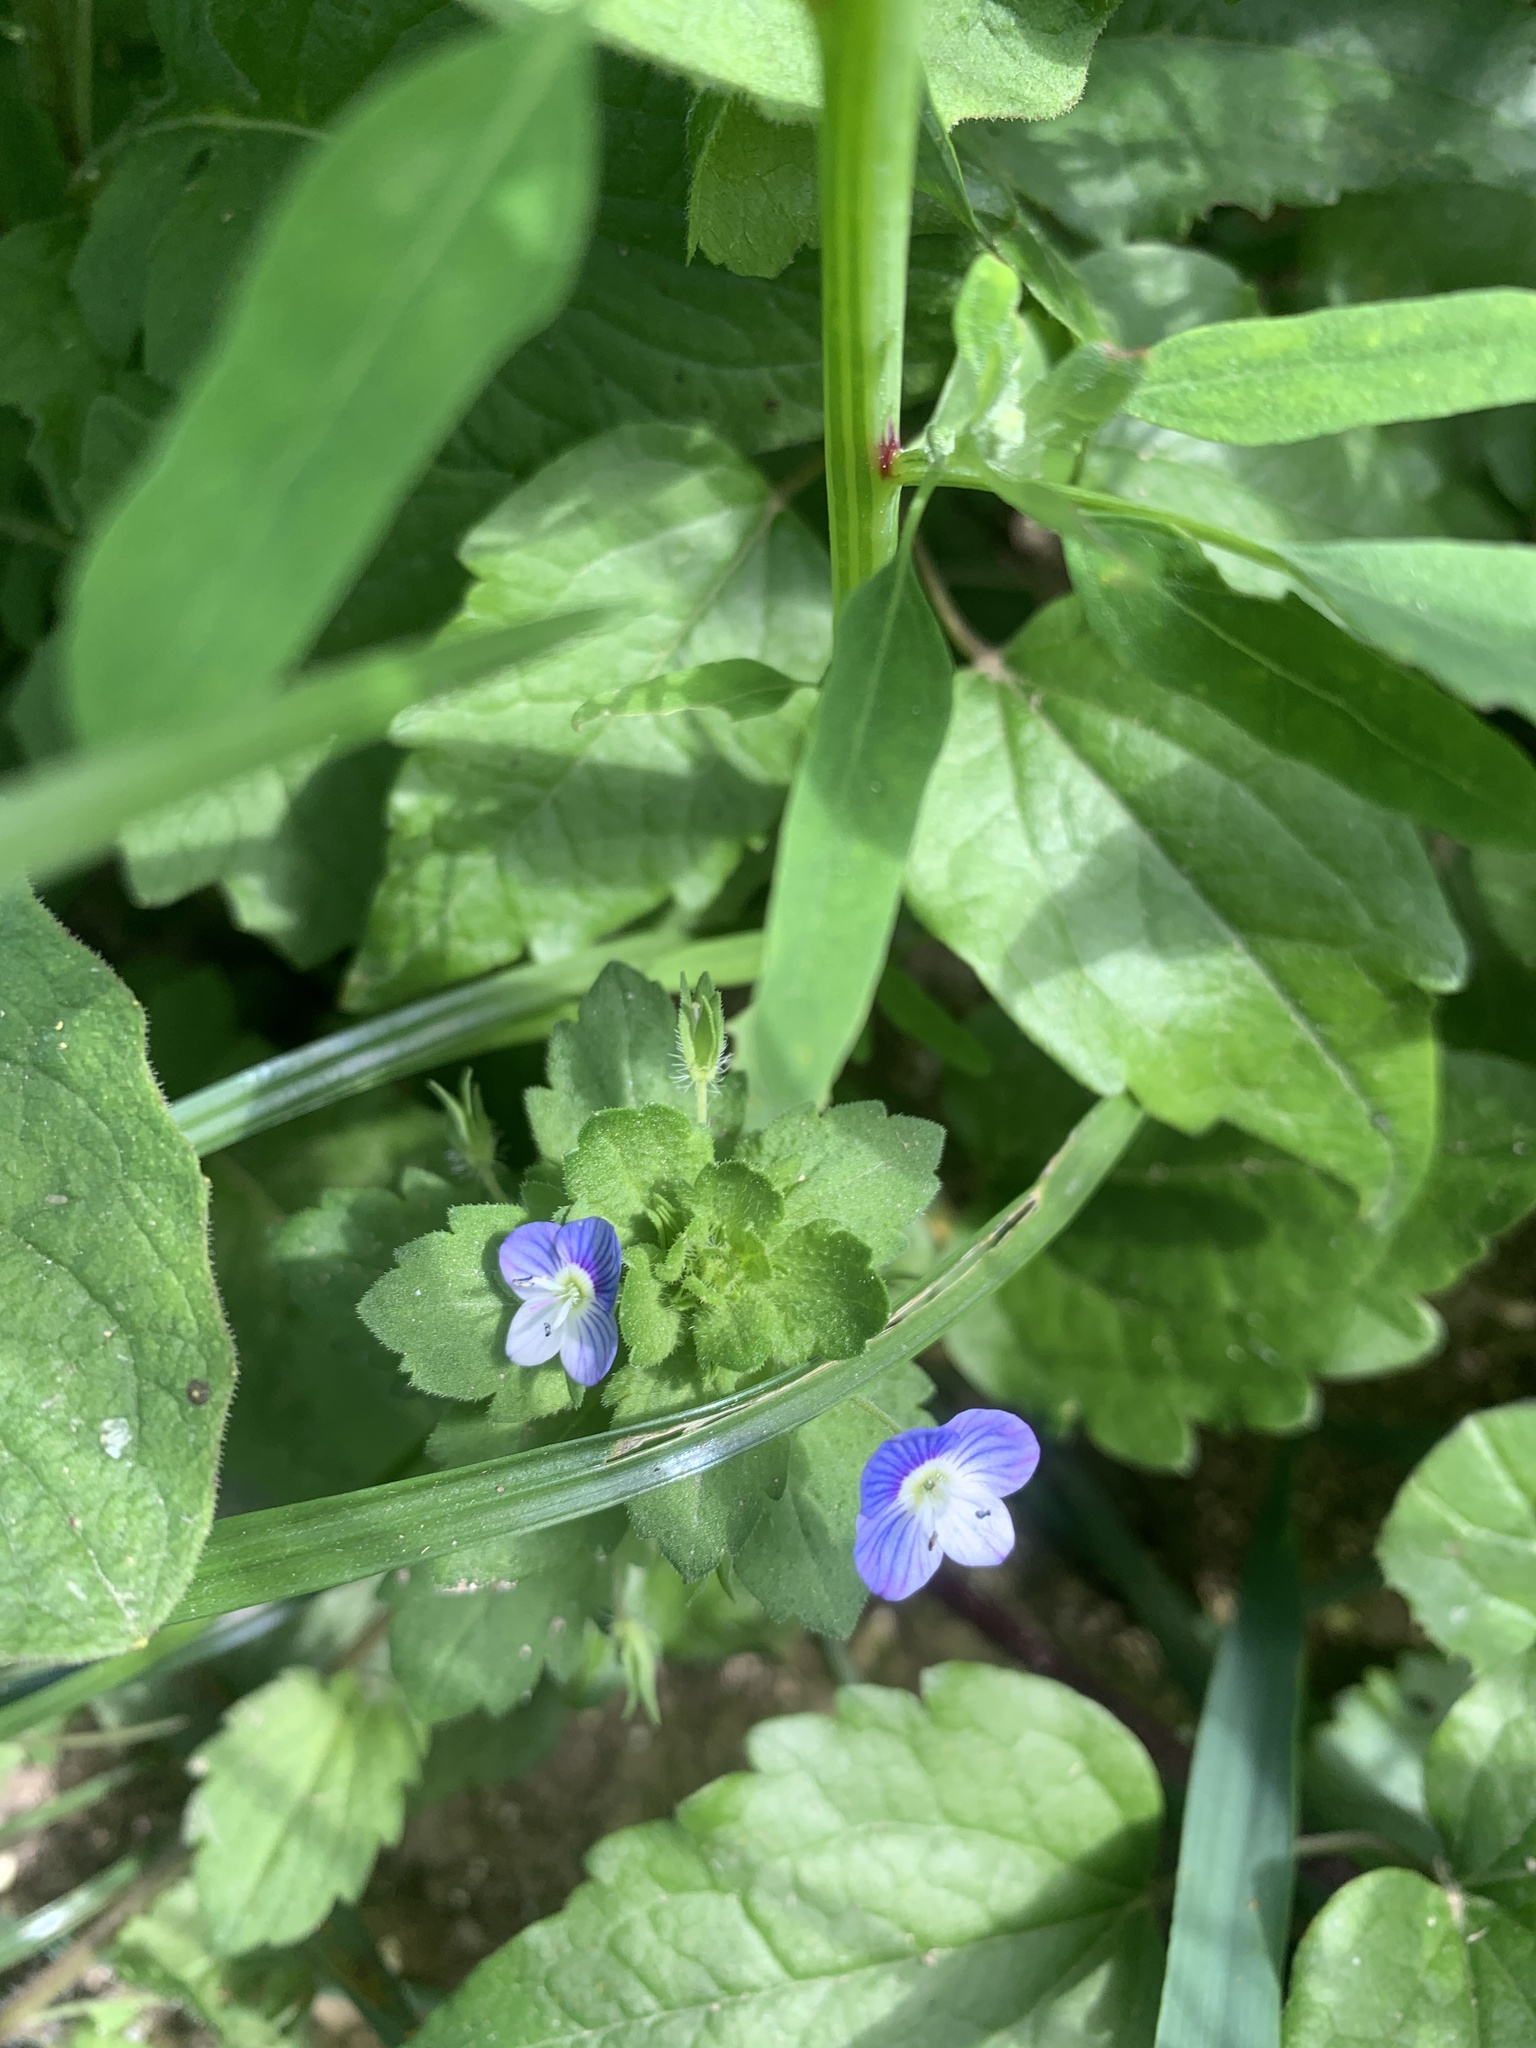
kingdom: Plantae
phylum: Tracheophyta
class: Magnoliopsida
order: Lamiales
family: Plantaginaceae
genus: Veronica
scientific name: Veronica persica
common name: Common field-speedwell
